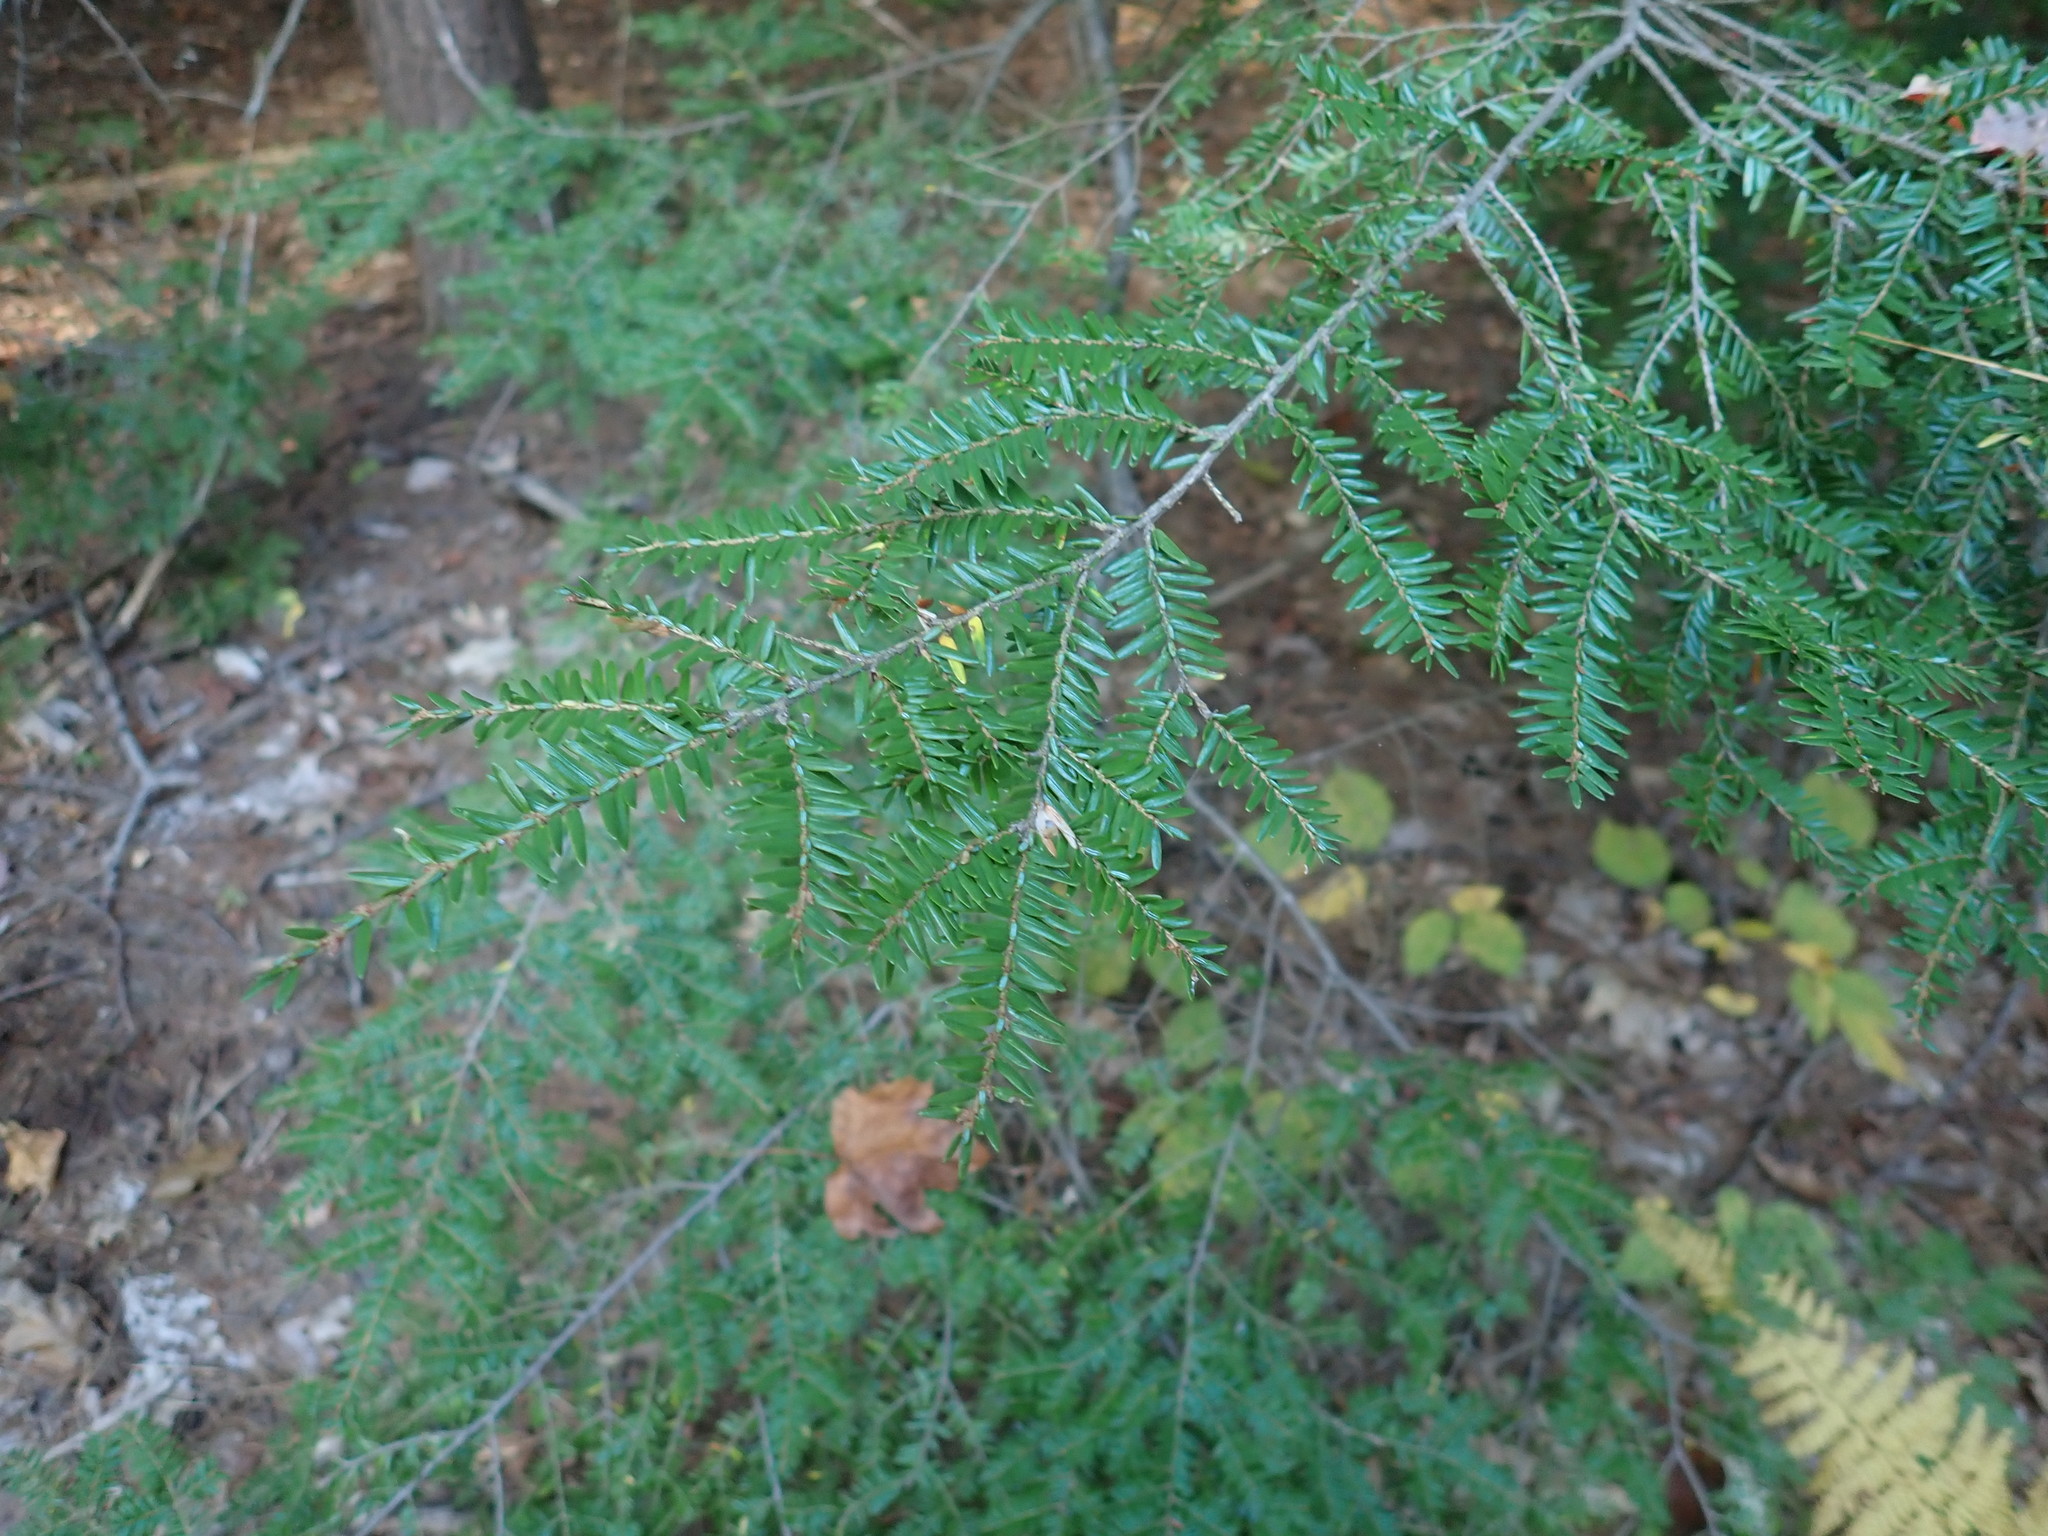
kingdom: Plantae
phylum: Tracheophyta
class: Pinopsida
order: Pinales
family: Pinaceae
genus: Tsuga
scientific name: Tsuga canadensis
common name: Eastern hemlock
